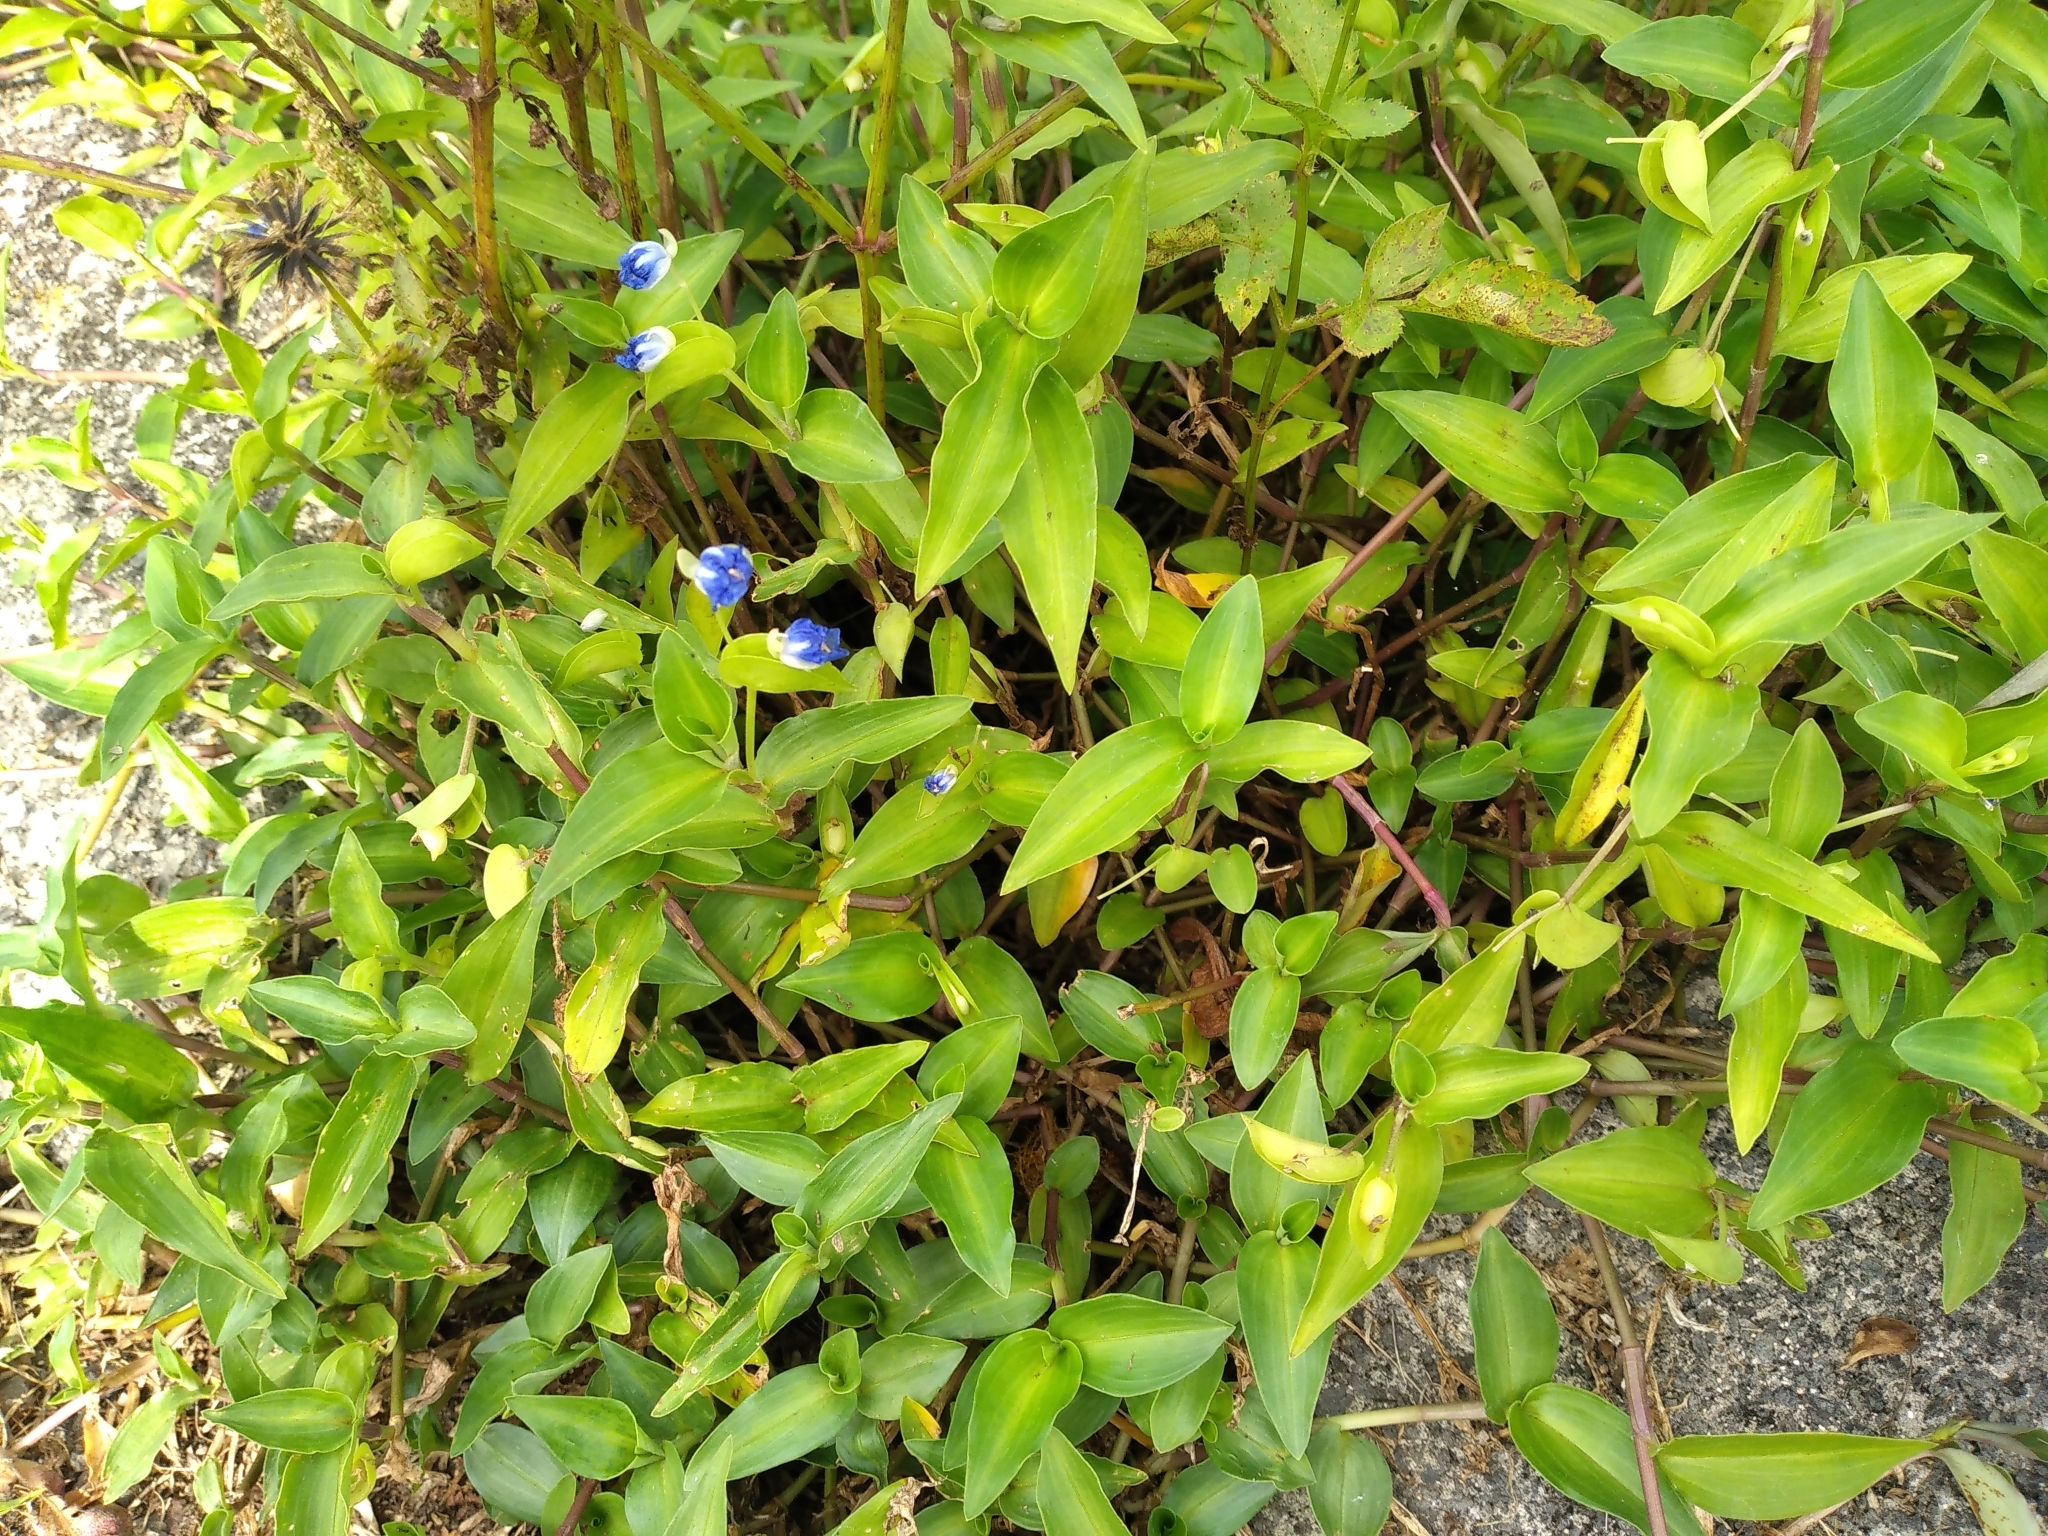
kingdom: Plantae
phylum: Tracheophyta
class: Liliopsida
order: Commelinales
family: Commelinaceae
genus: Commelina
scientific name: Commelina cyanea
